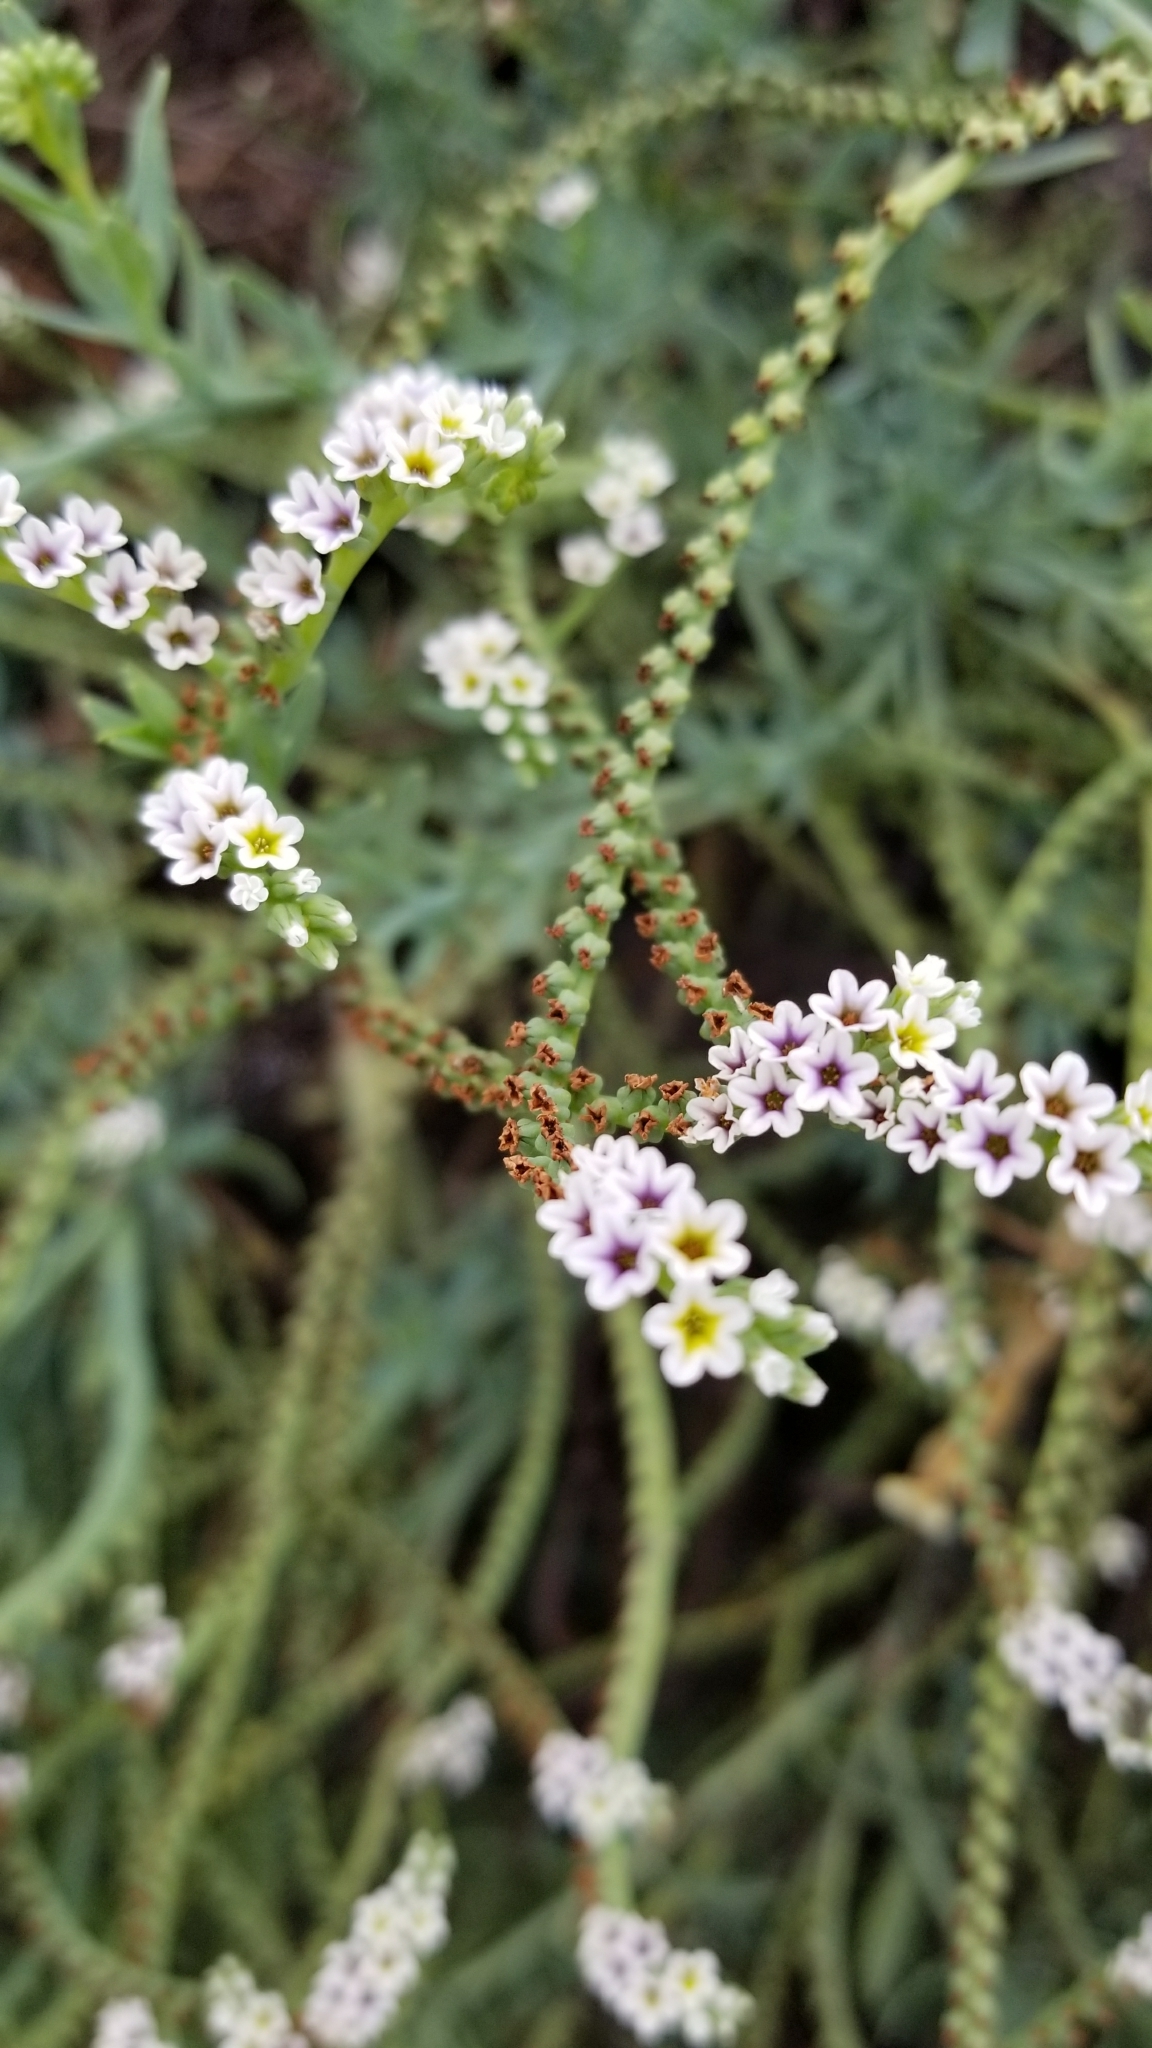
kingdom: Plantae
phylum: Tracheophyta
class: Magnoliopsida
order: Boraginales
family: Heliotropiaceae
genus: Heliotropium
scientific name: Heliotropium curassavicum
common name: Seaside heliotrope
